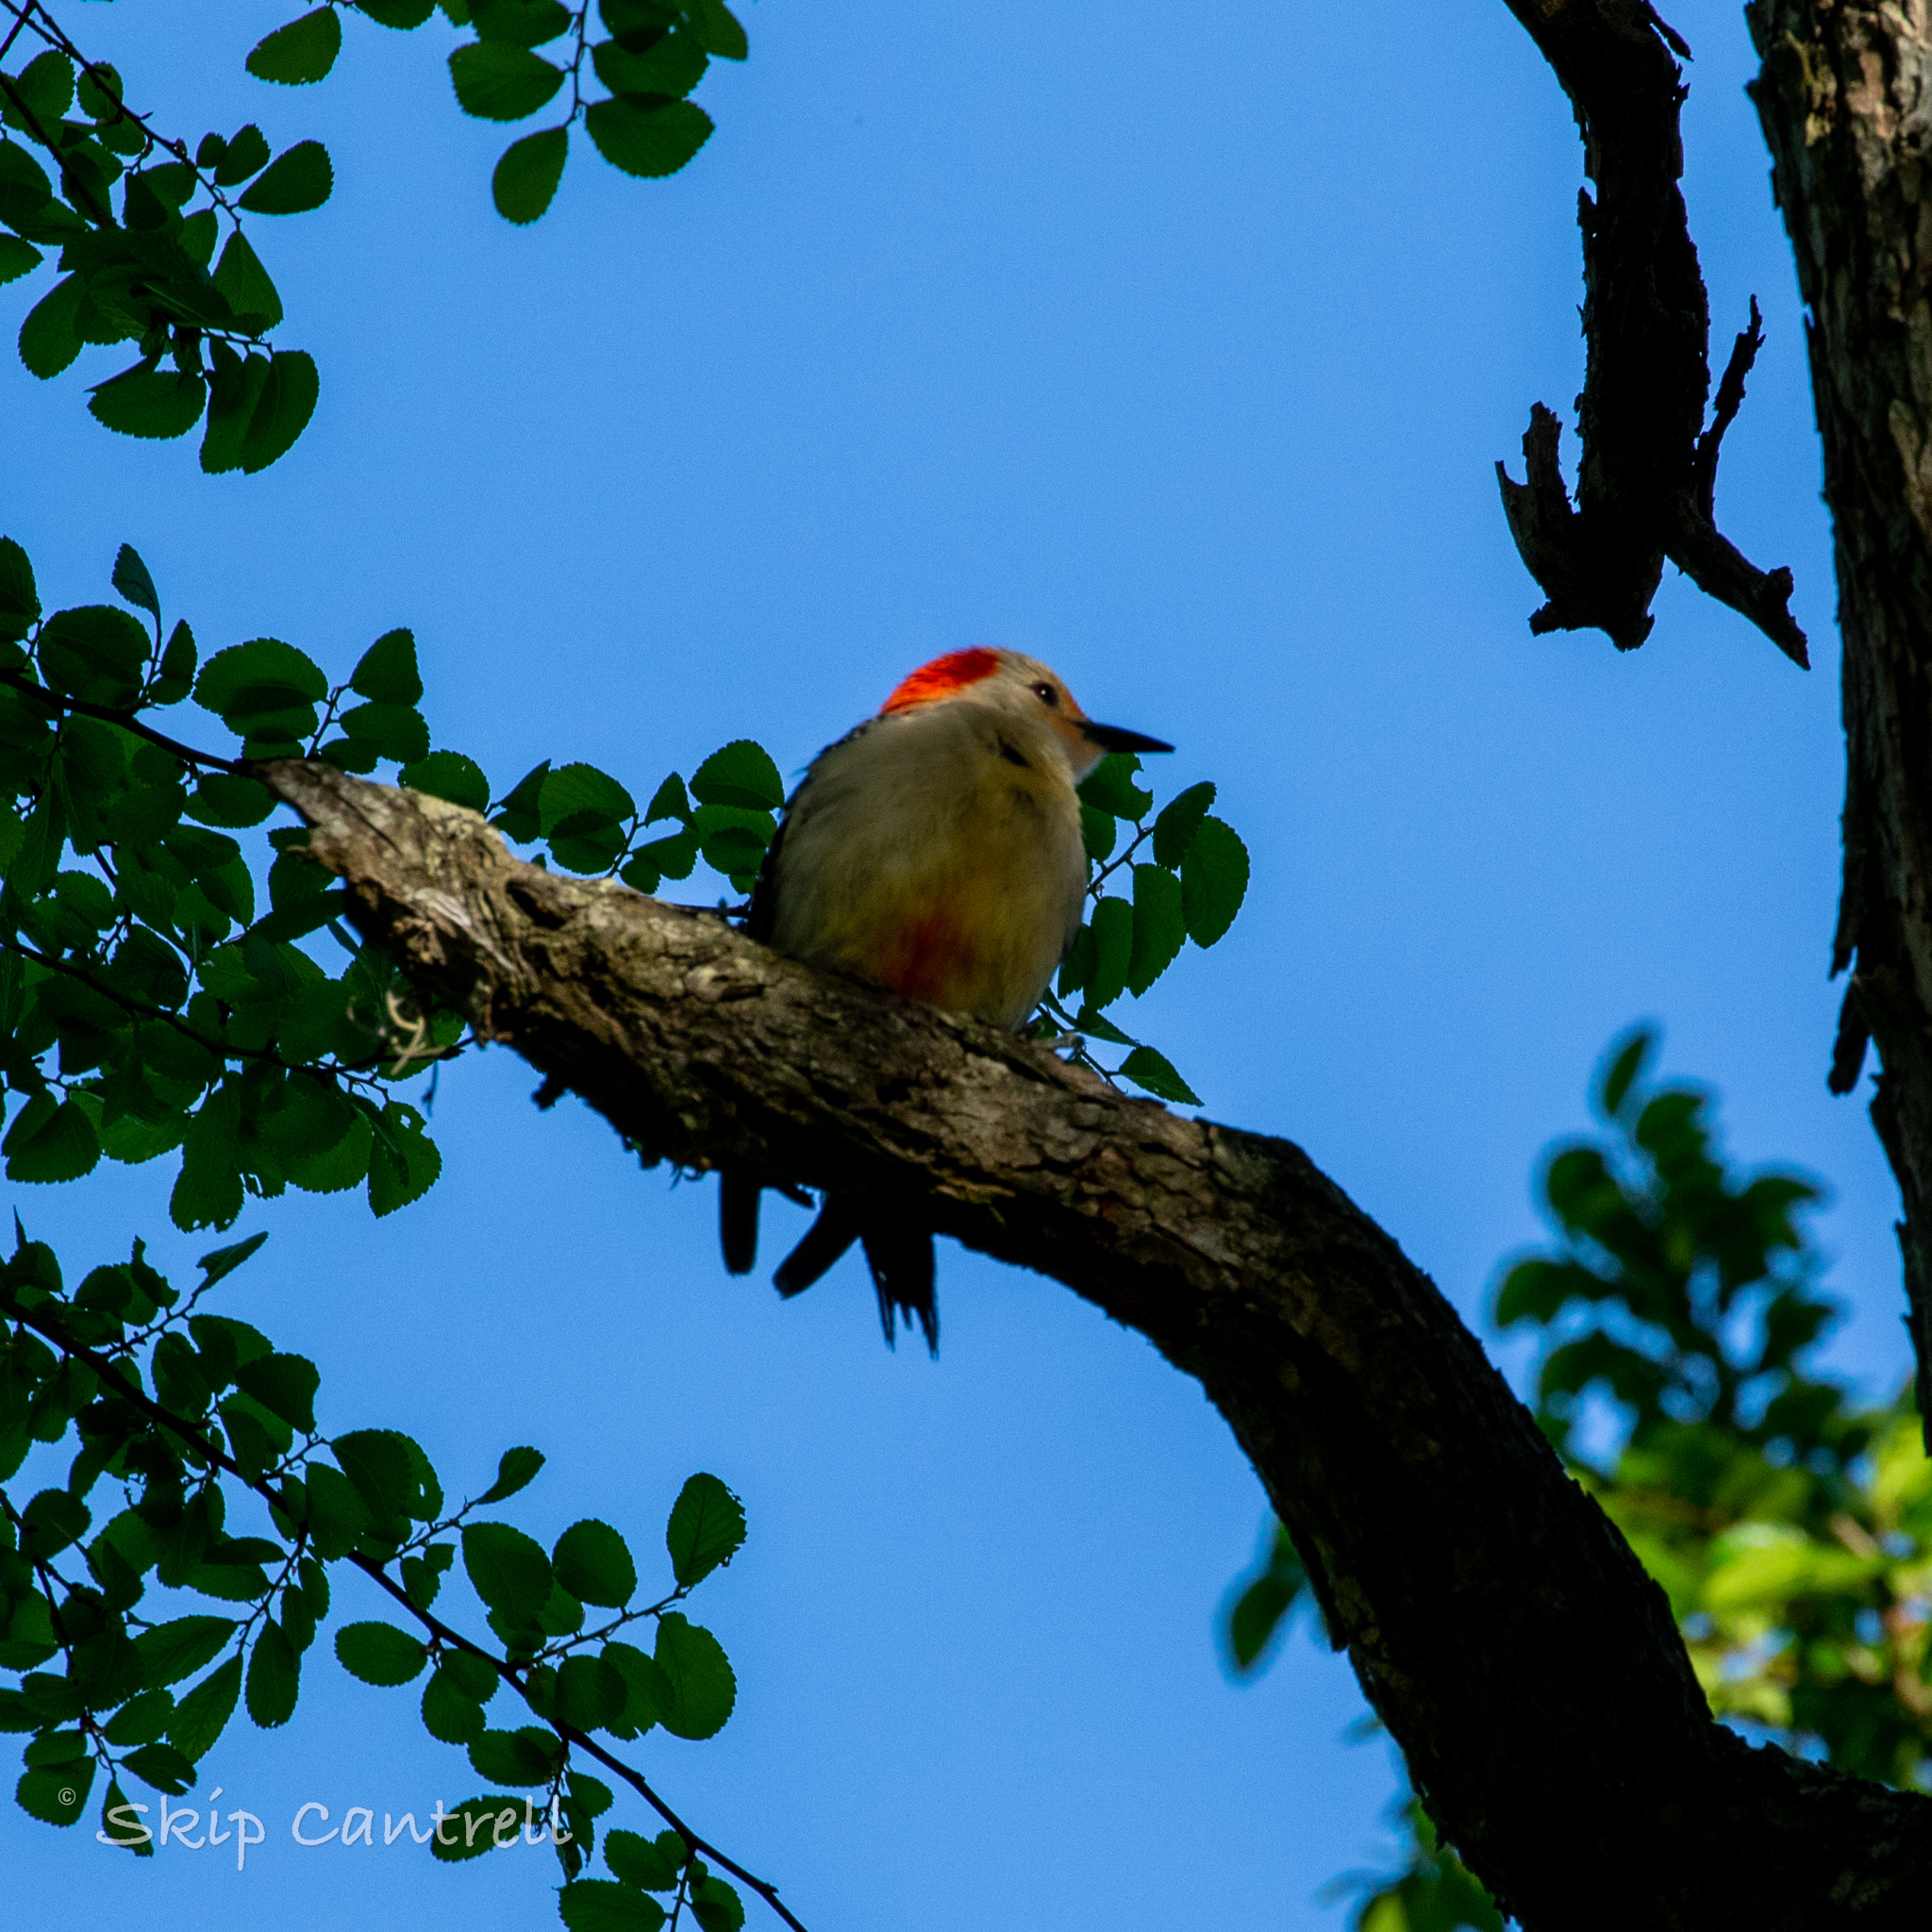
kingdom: Animalia
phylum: Chordata
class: Aves
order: Piciformes
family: Picidae
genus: Melanerpes
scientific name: Melanerpes carolinus
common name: Red-bellied woodpecker
